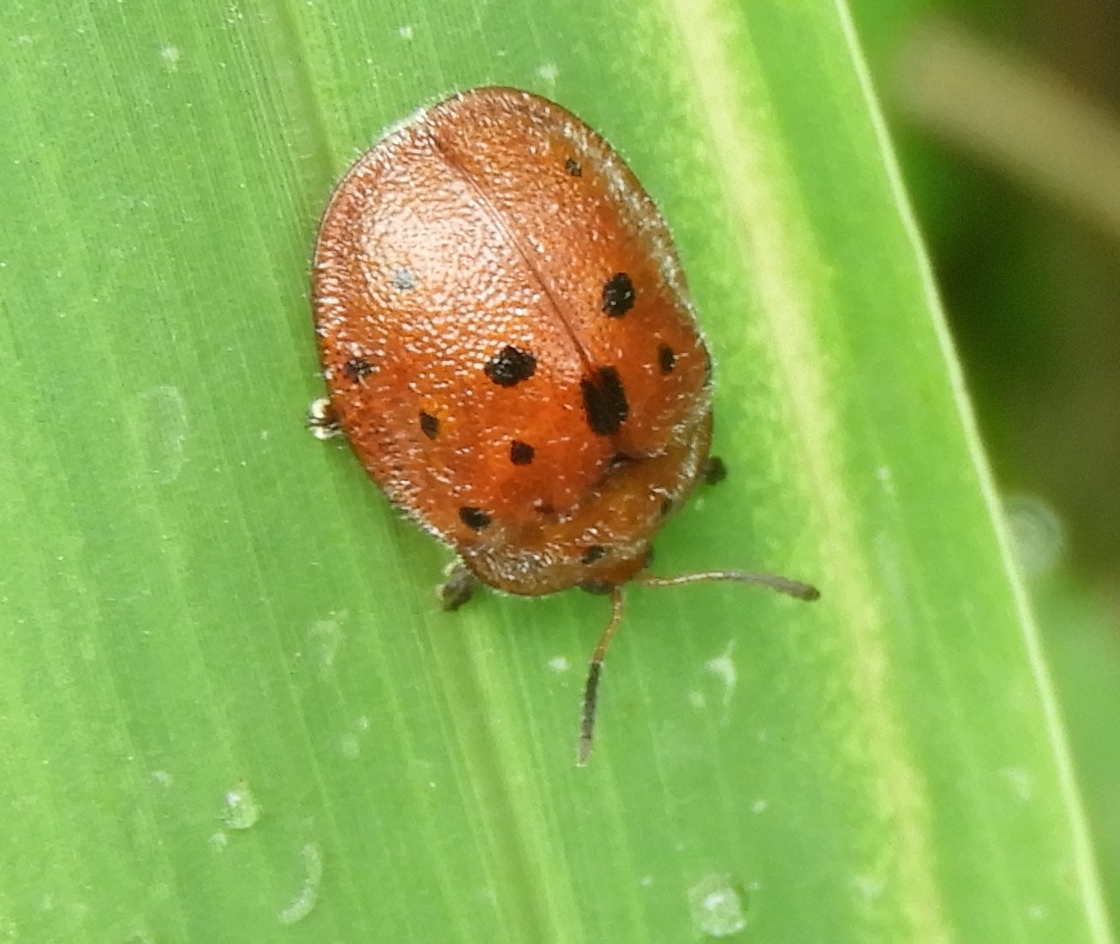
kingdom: Animalia
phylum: Arthropoda
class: Insecta
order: Coleoptera
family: Chrysomelidae
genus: Chelymorpha
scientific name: Chelymorpha
